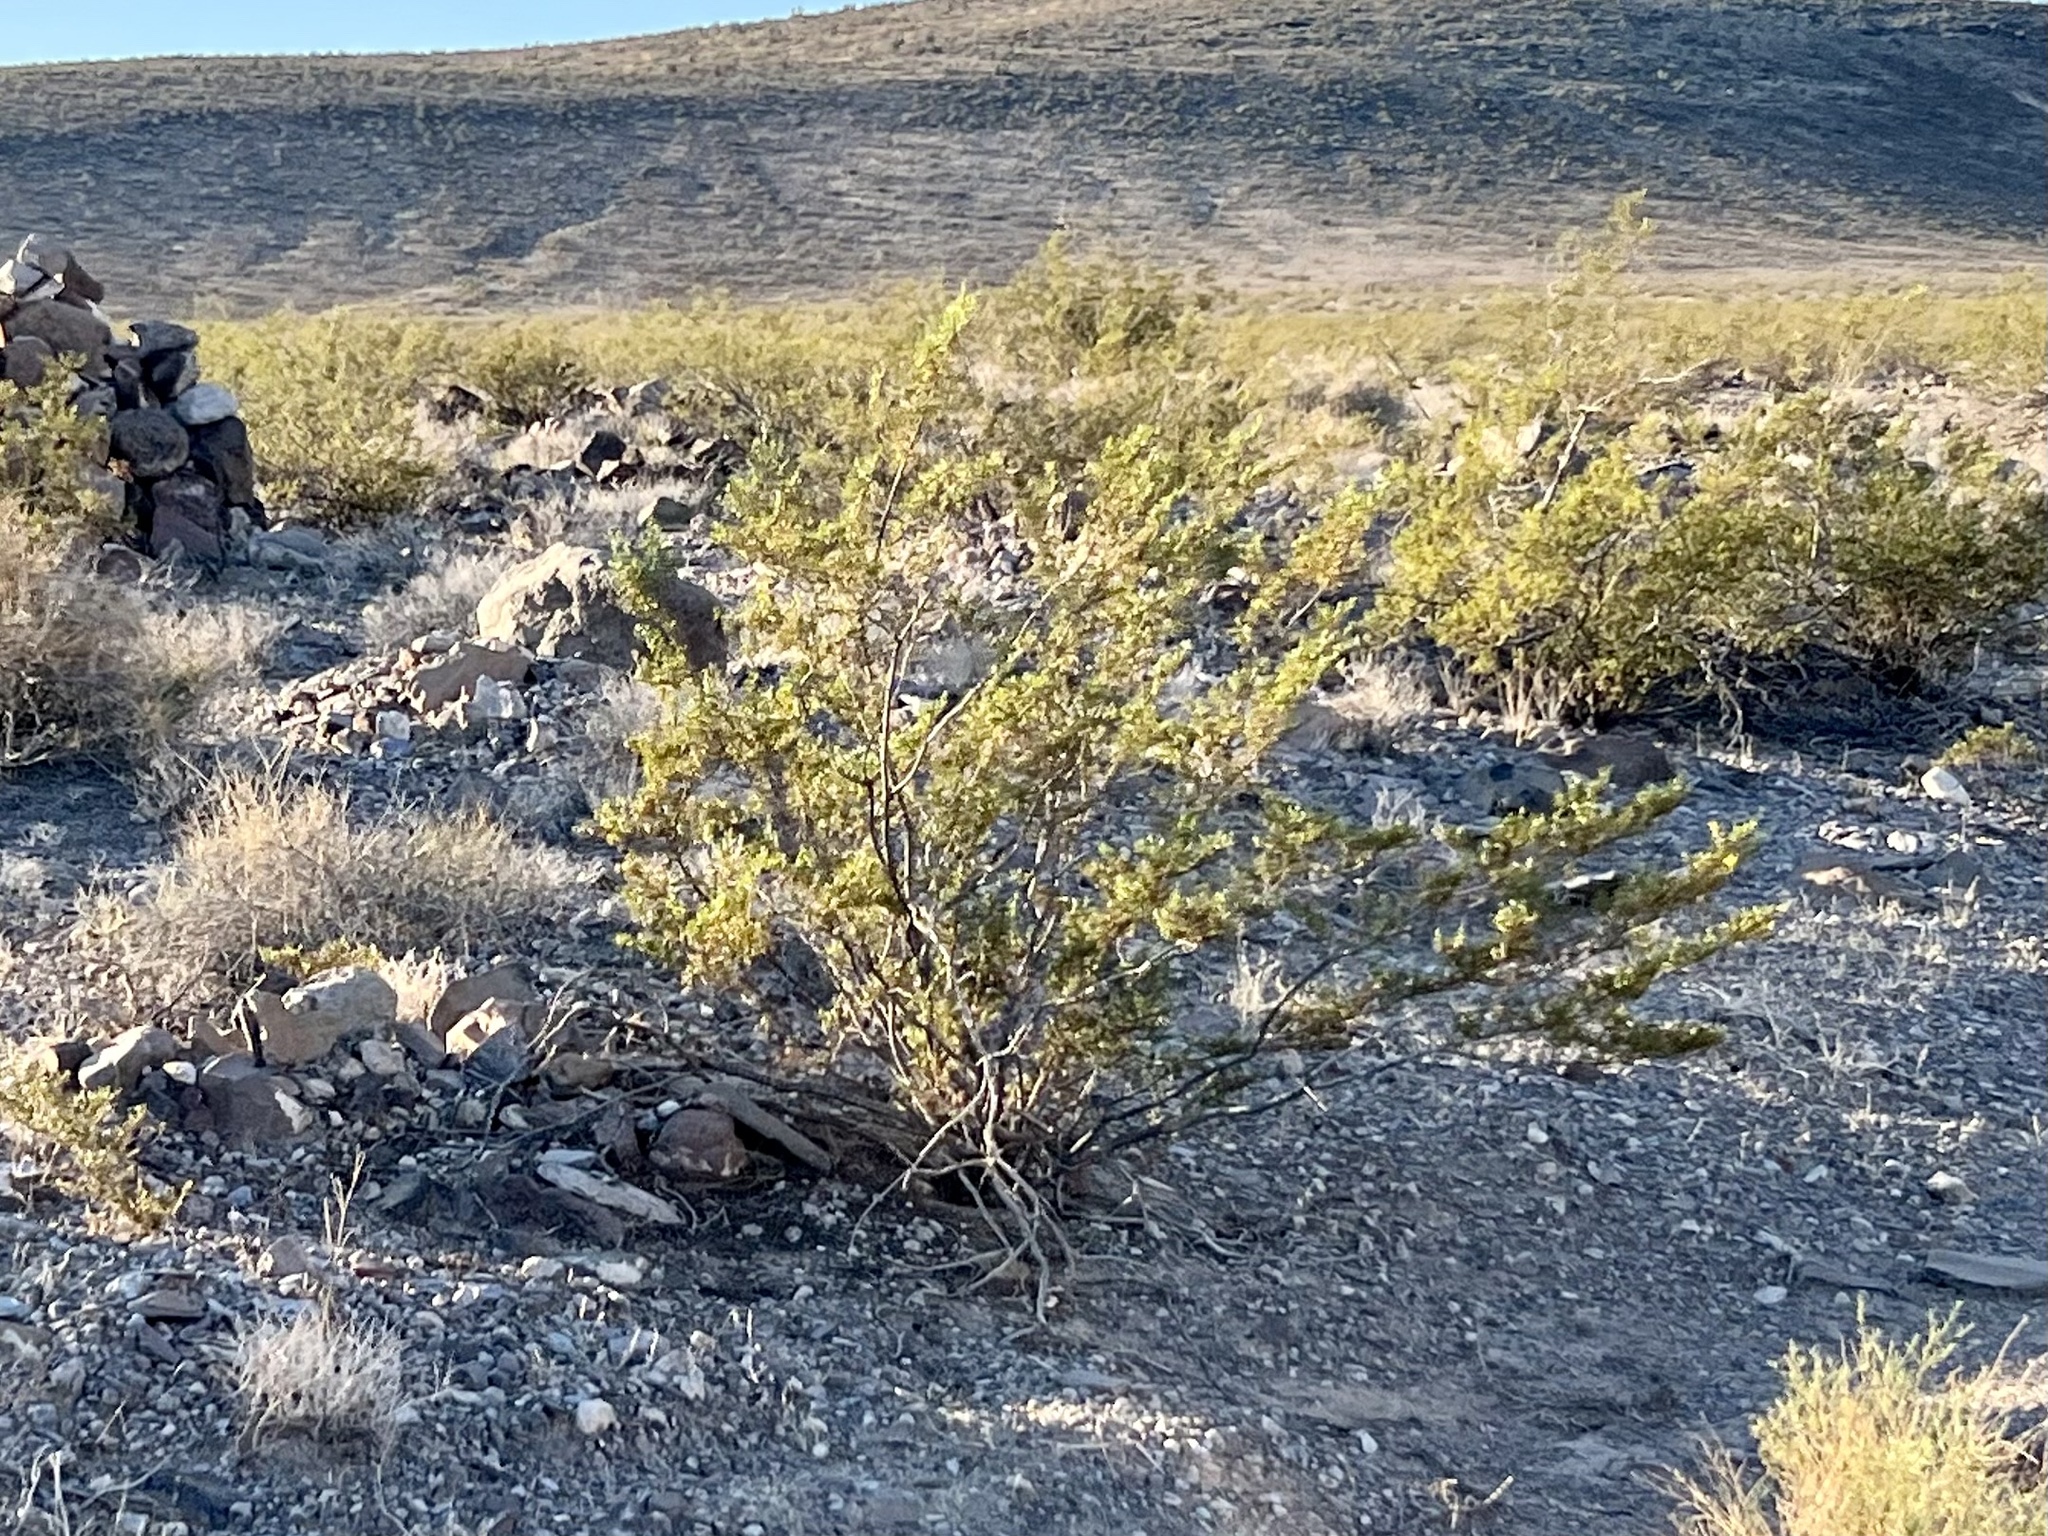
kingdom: Plantae
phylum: Tracheophyta
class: Magnoliopsida
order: Zygophyllales
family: Zygophyllaceae
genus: Larrea
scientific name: Larrea tridentata
